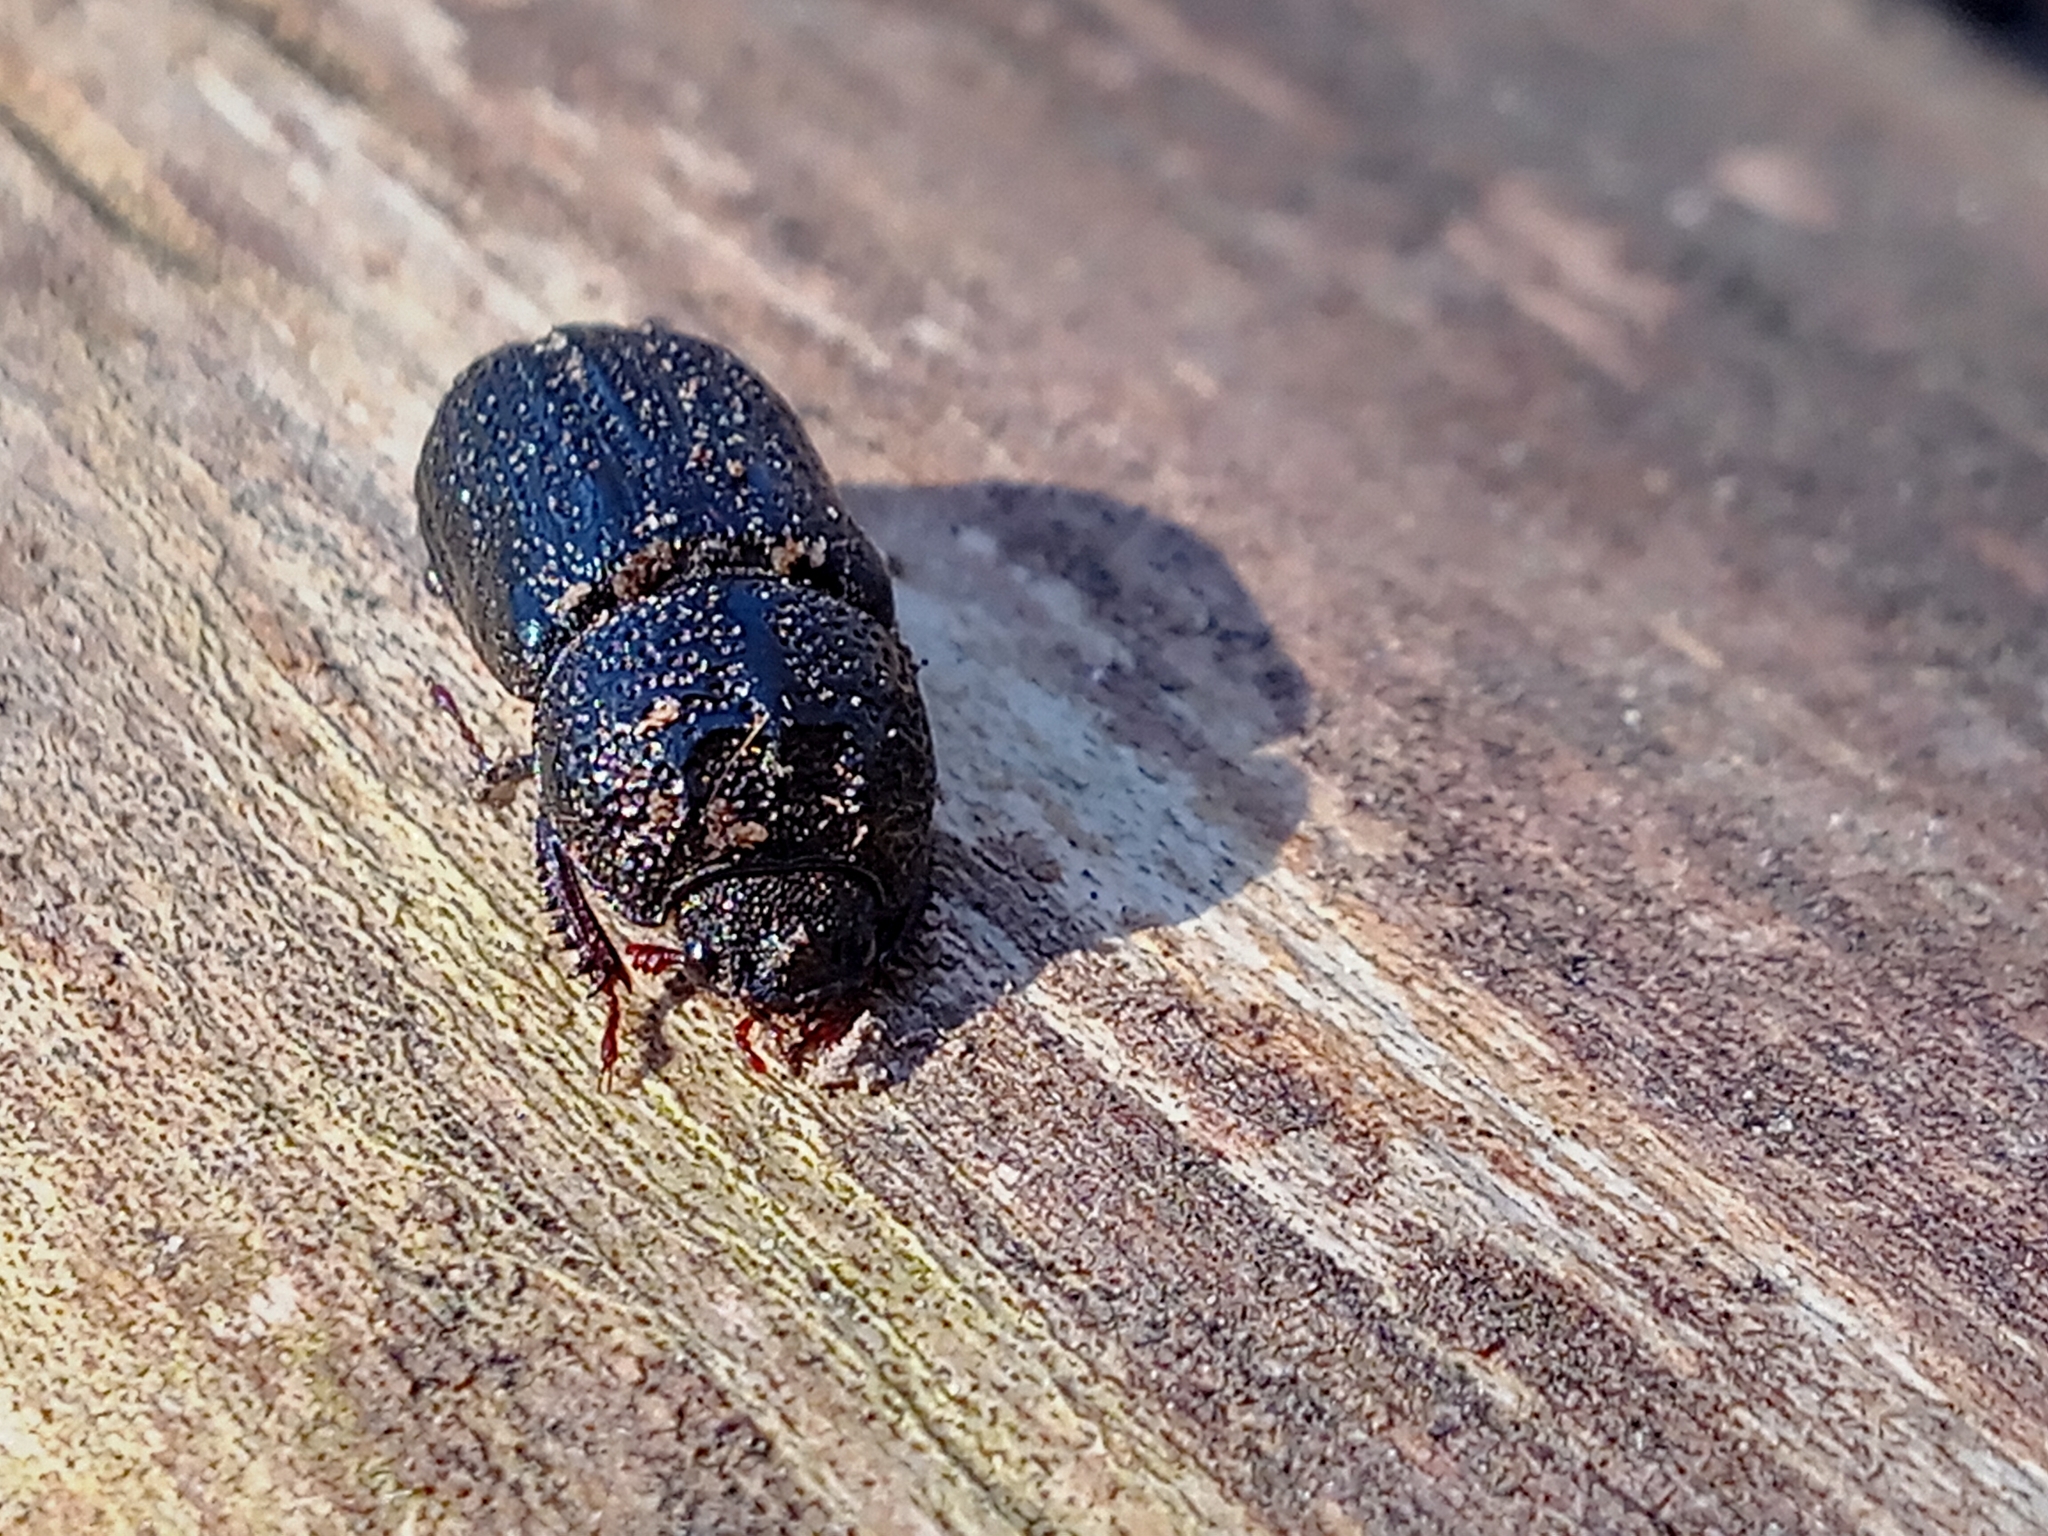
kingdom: Animalia
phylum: Arthropoda
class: Insecta
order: Coleoptera
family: Lucanidae
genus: Sinodendron
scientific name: Sinodendron cylindricum
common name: Rhinoceros beetle
